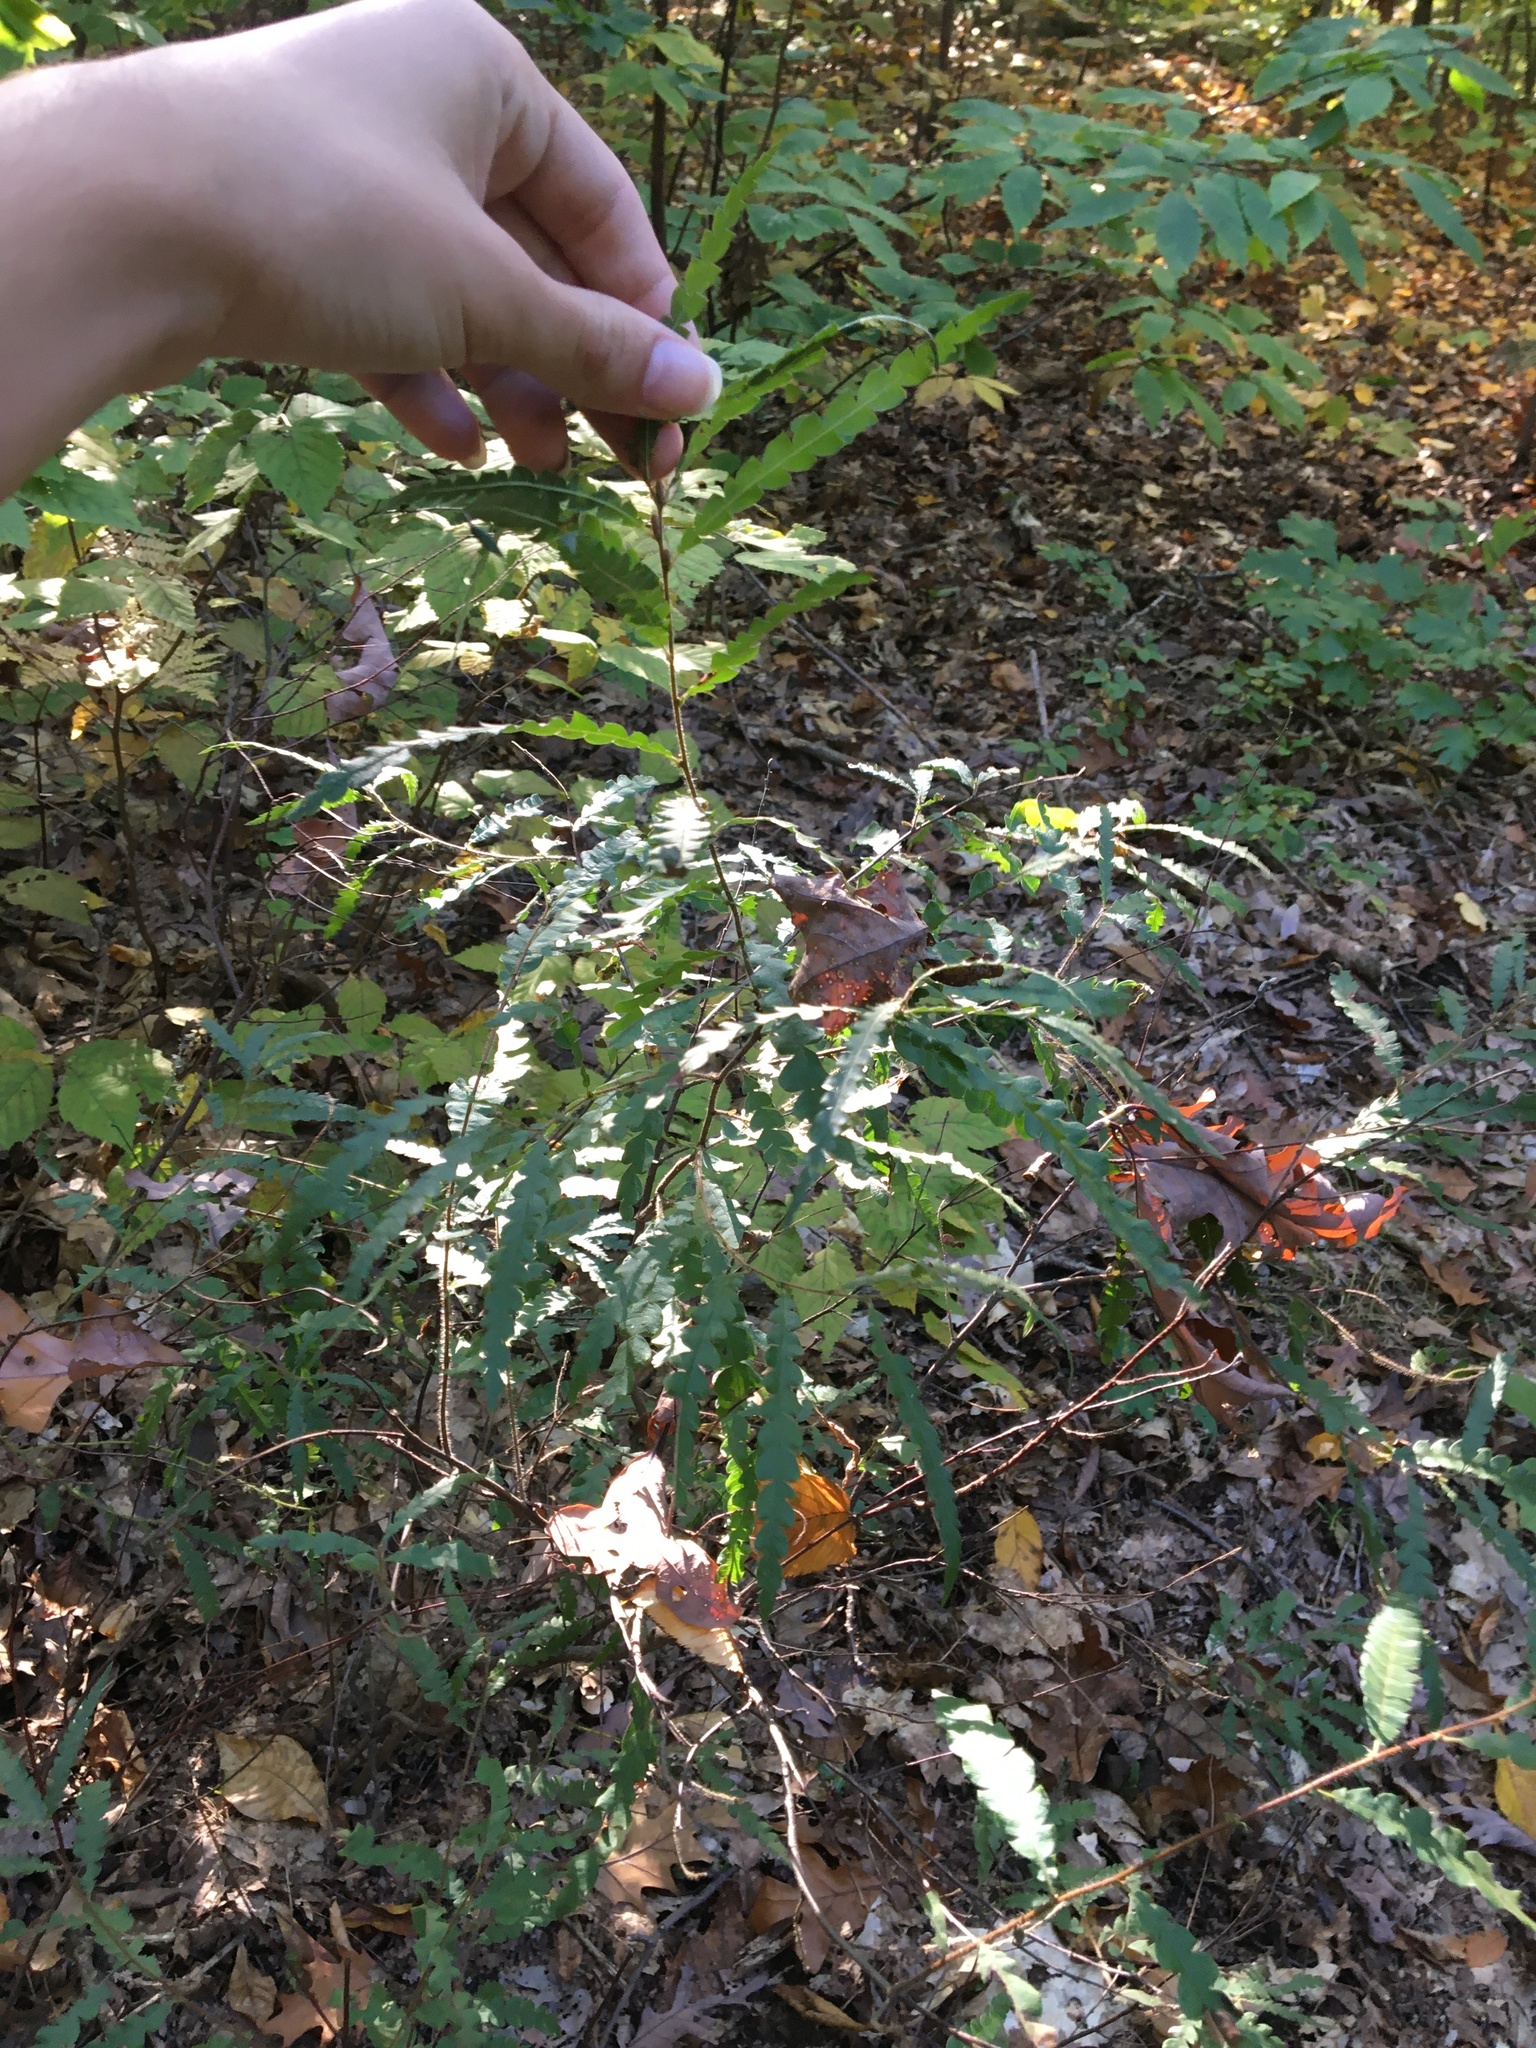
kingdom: Plantae
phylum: Tracheophyta
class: Magnoliopsida
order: Fagales
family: Myricaceae
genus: Comptonia
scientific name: Comptonia peregrina
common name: Sweet-fern
